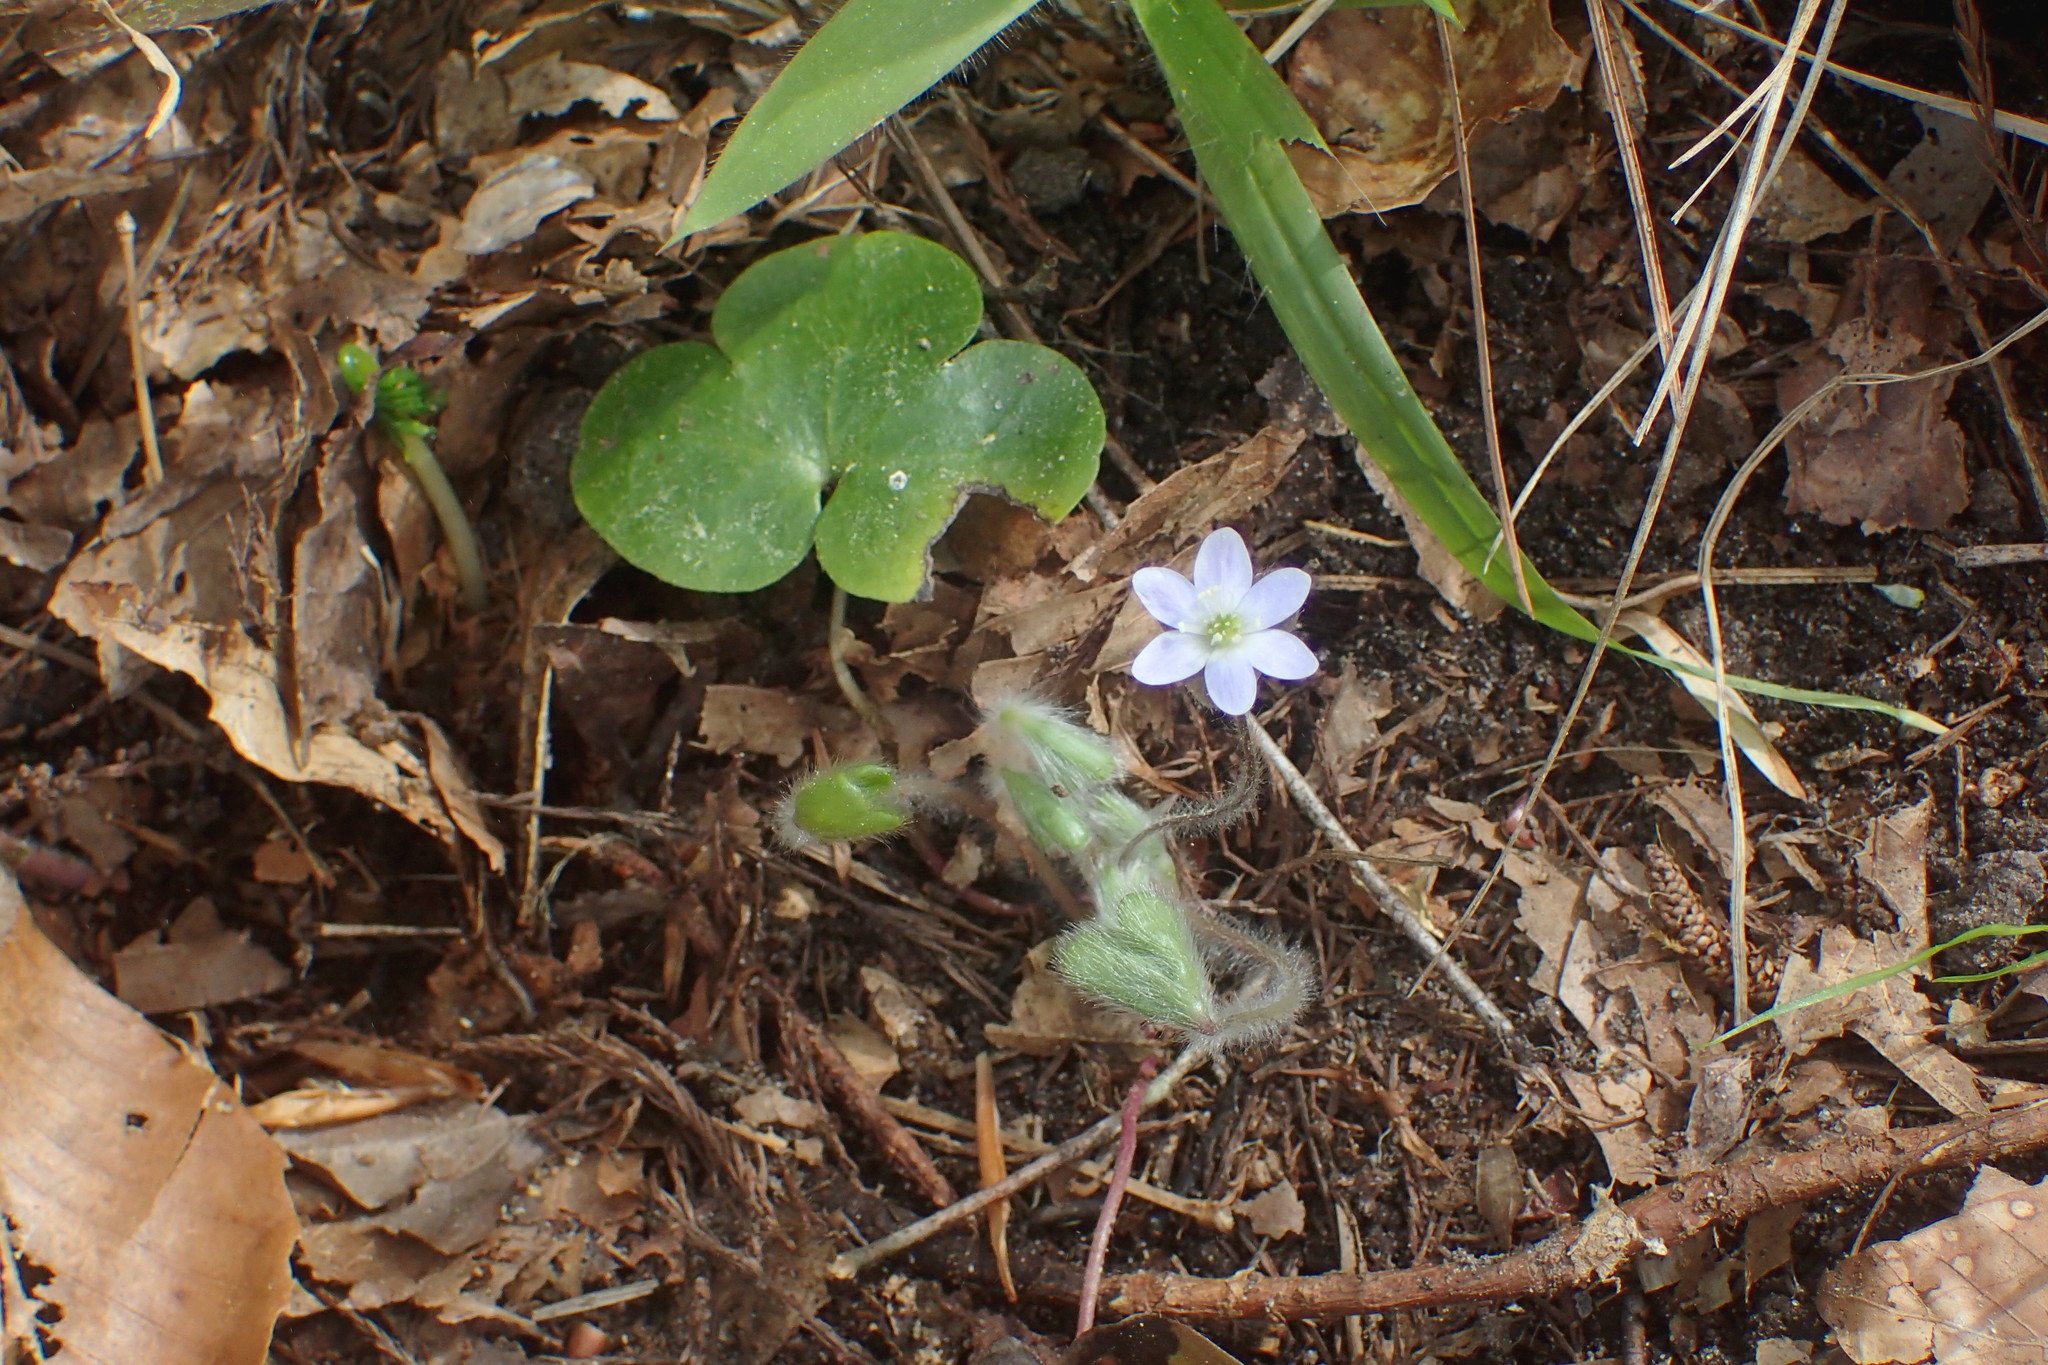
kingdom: Plantae
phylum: Tracheophyta
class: Magnoliopsida
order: Ranunculales
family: Ranunculaceae
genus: Hepatica
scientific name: Hepatica americana
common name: American hepatica
